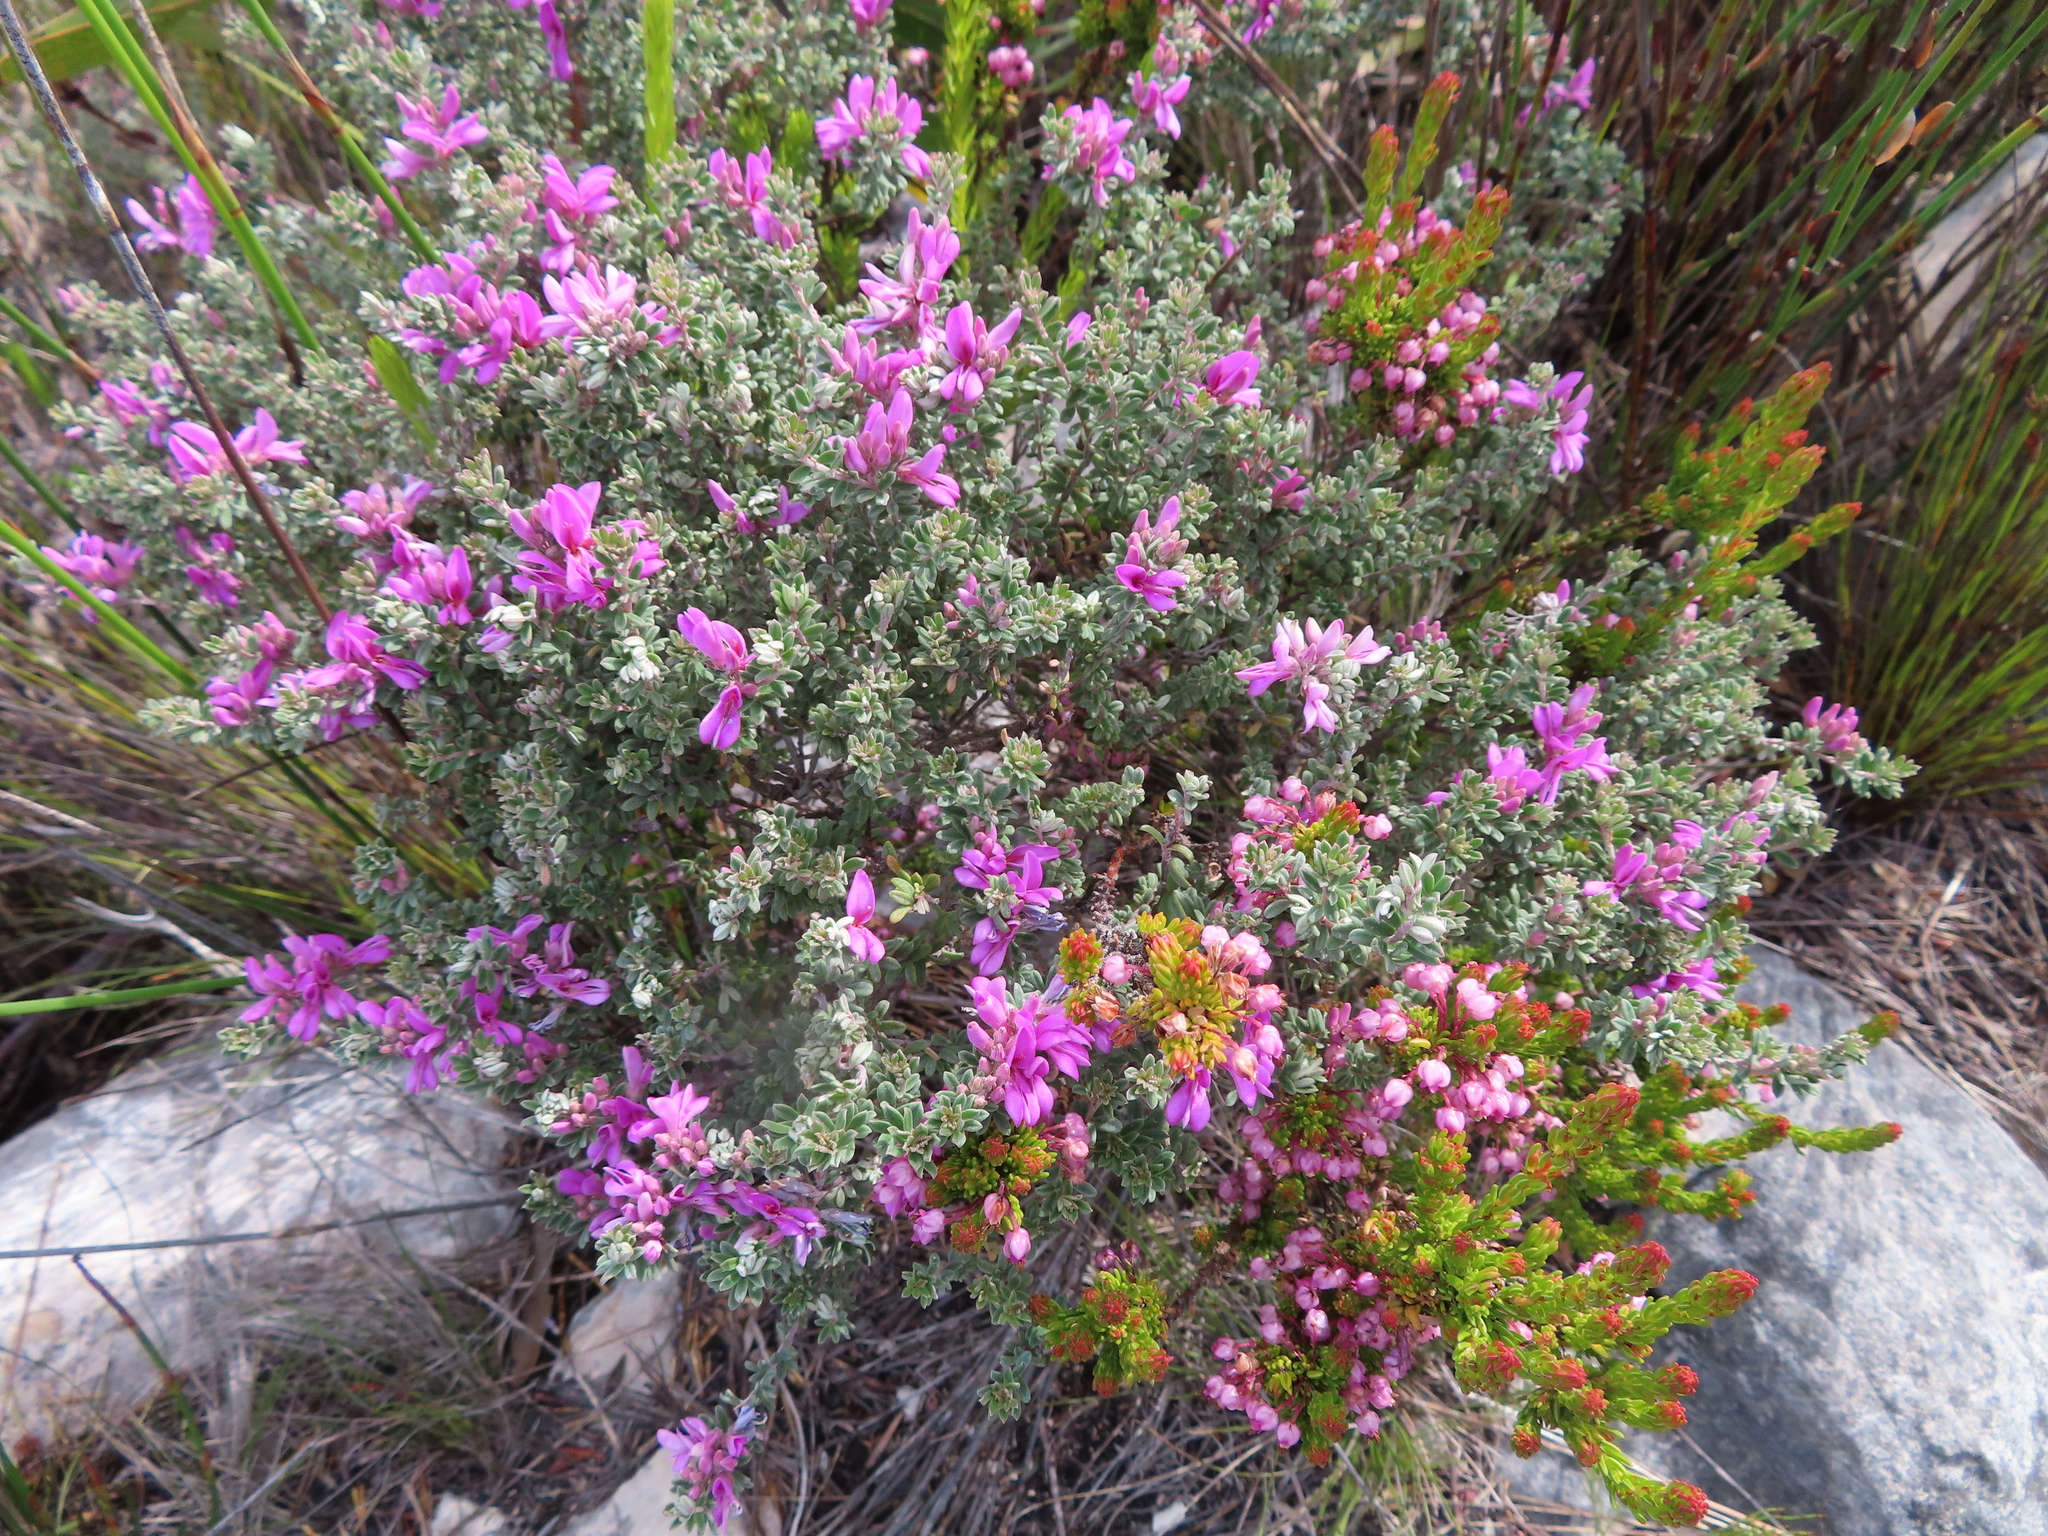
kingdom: Plantae
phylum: Tracheophyta
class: Magnoliopsida
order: Fabales
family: Fabaceae
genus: Indigofera
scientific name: Indigofera
